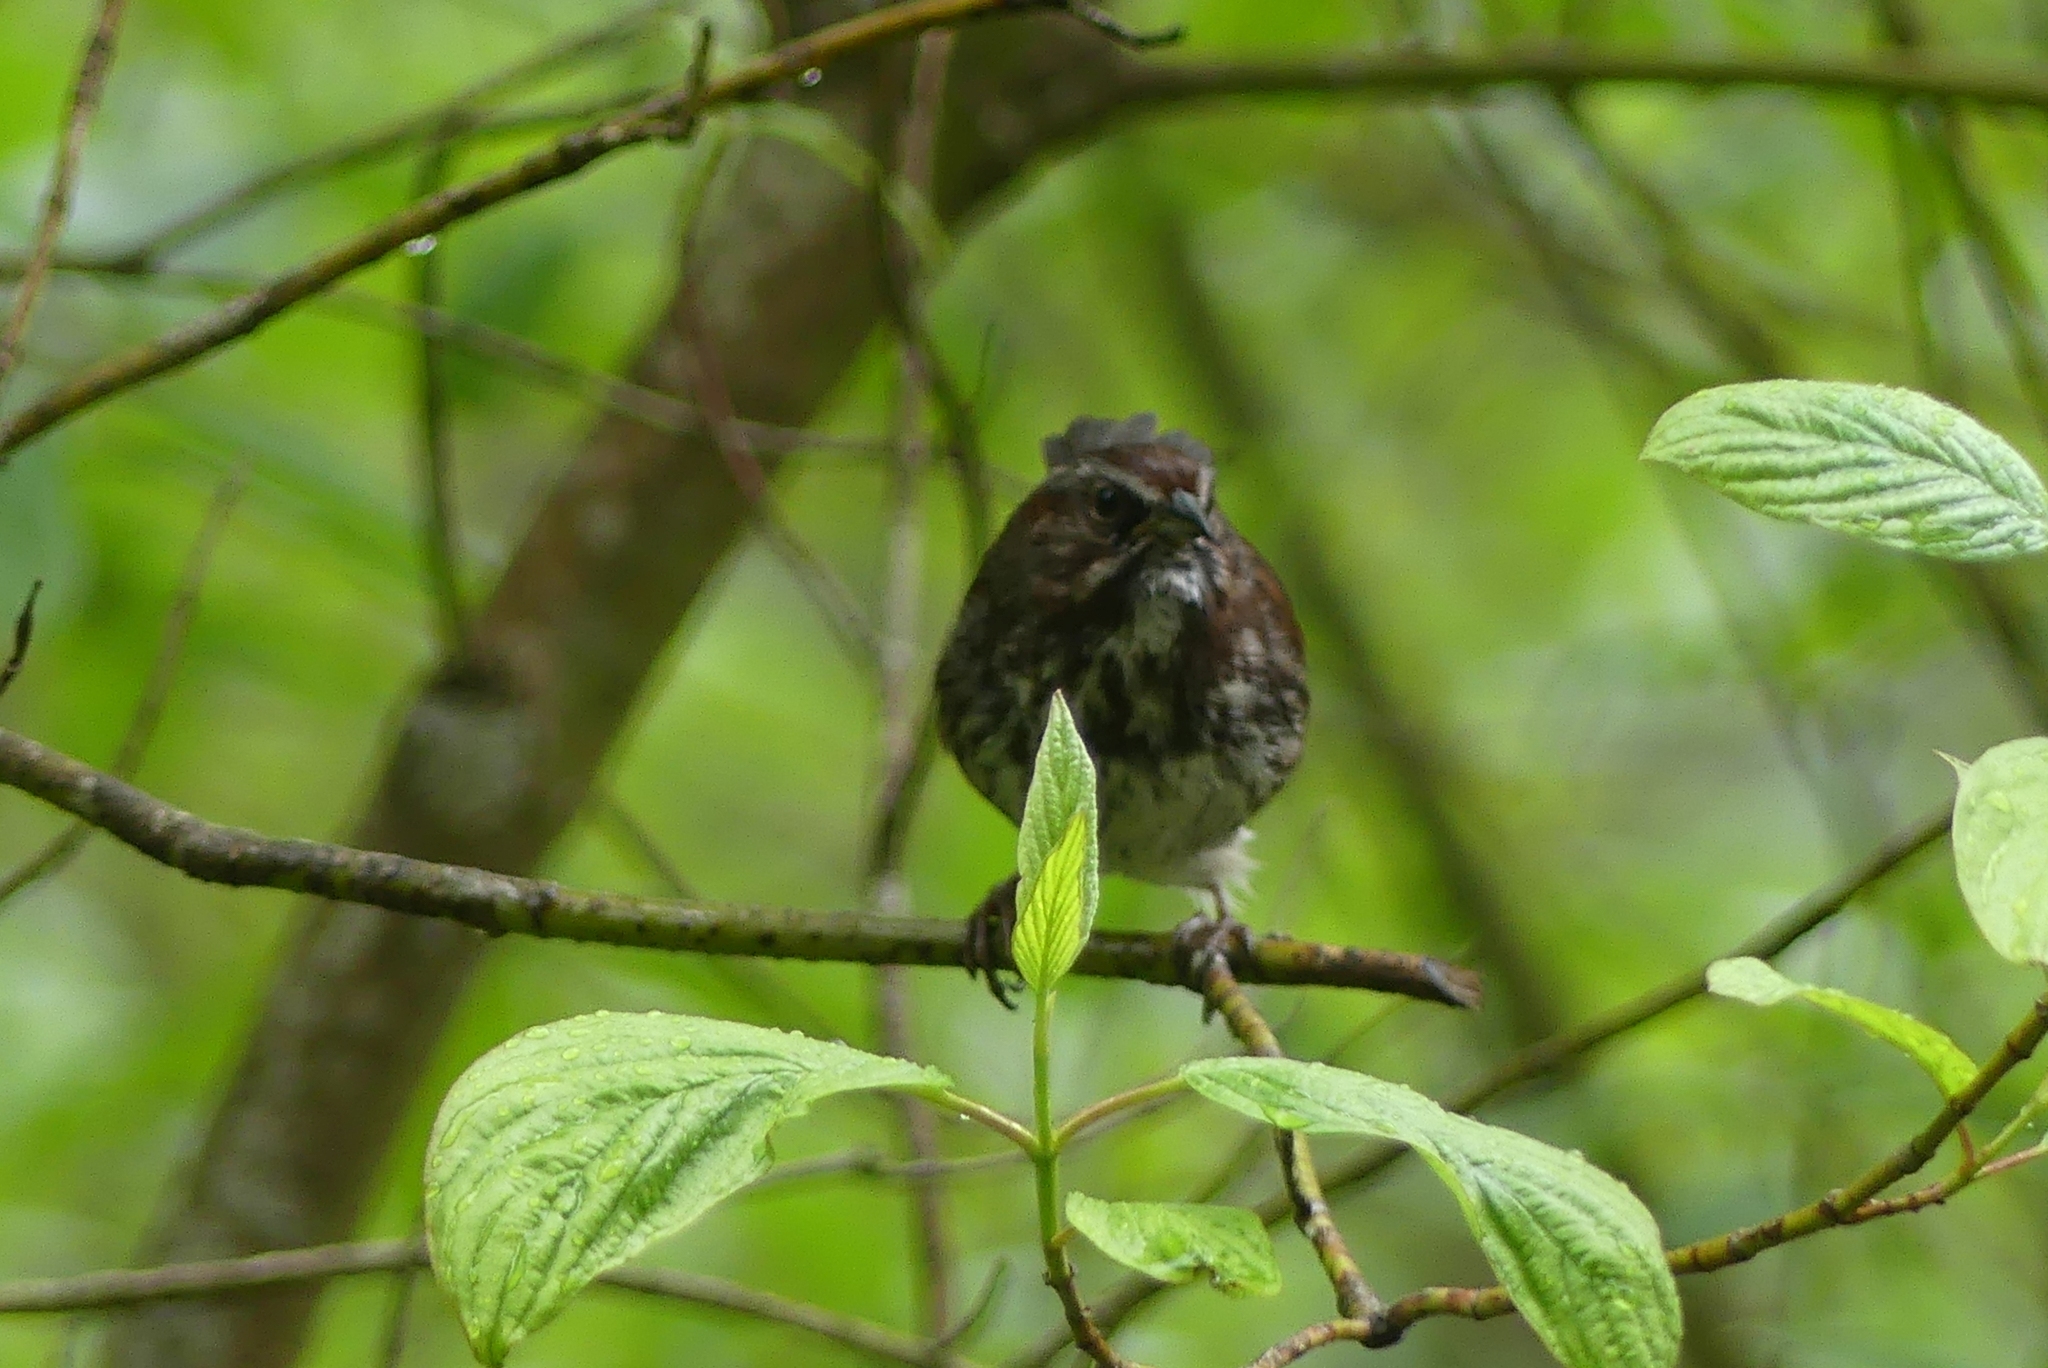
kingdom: Animalia
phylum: Chordata
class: Aves
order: Passeriformes
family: Passerellidae
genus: Melospiza
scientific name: Melospiza melodia
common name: Song sparrow
